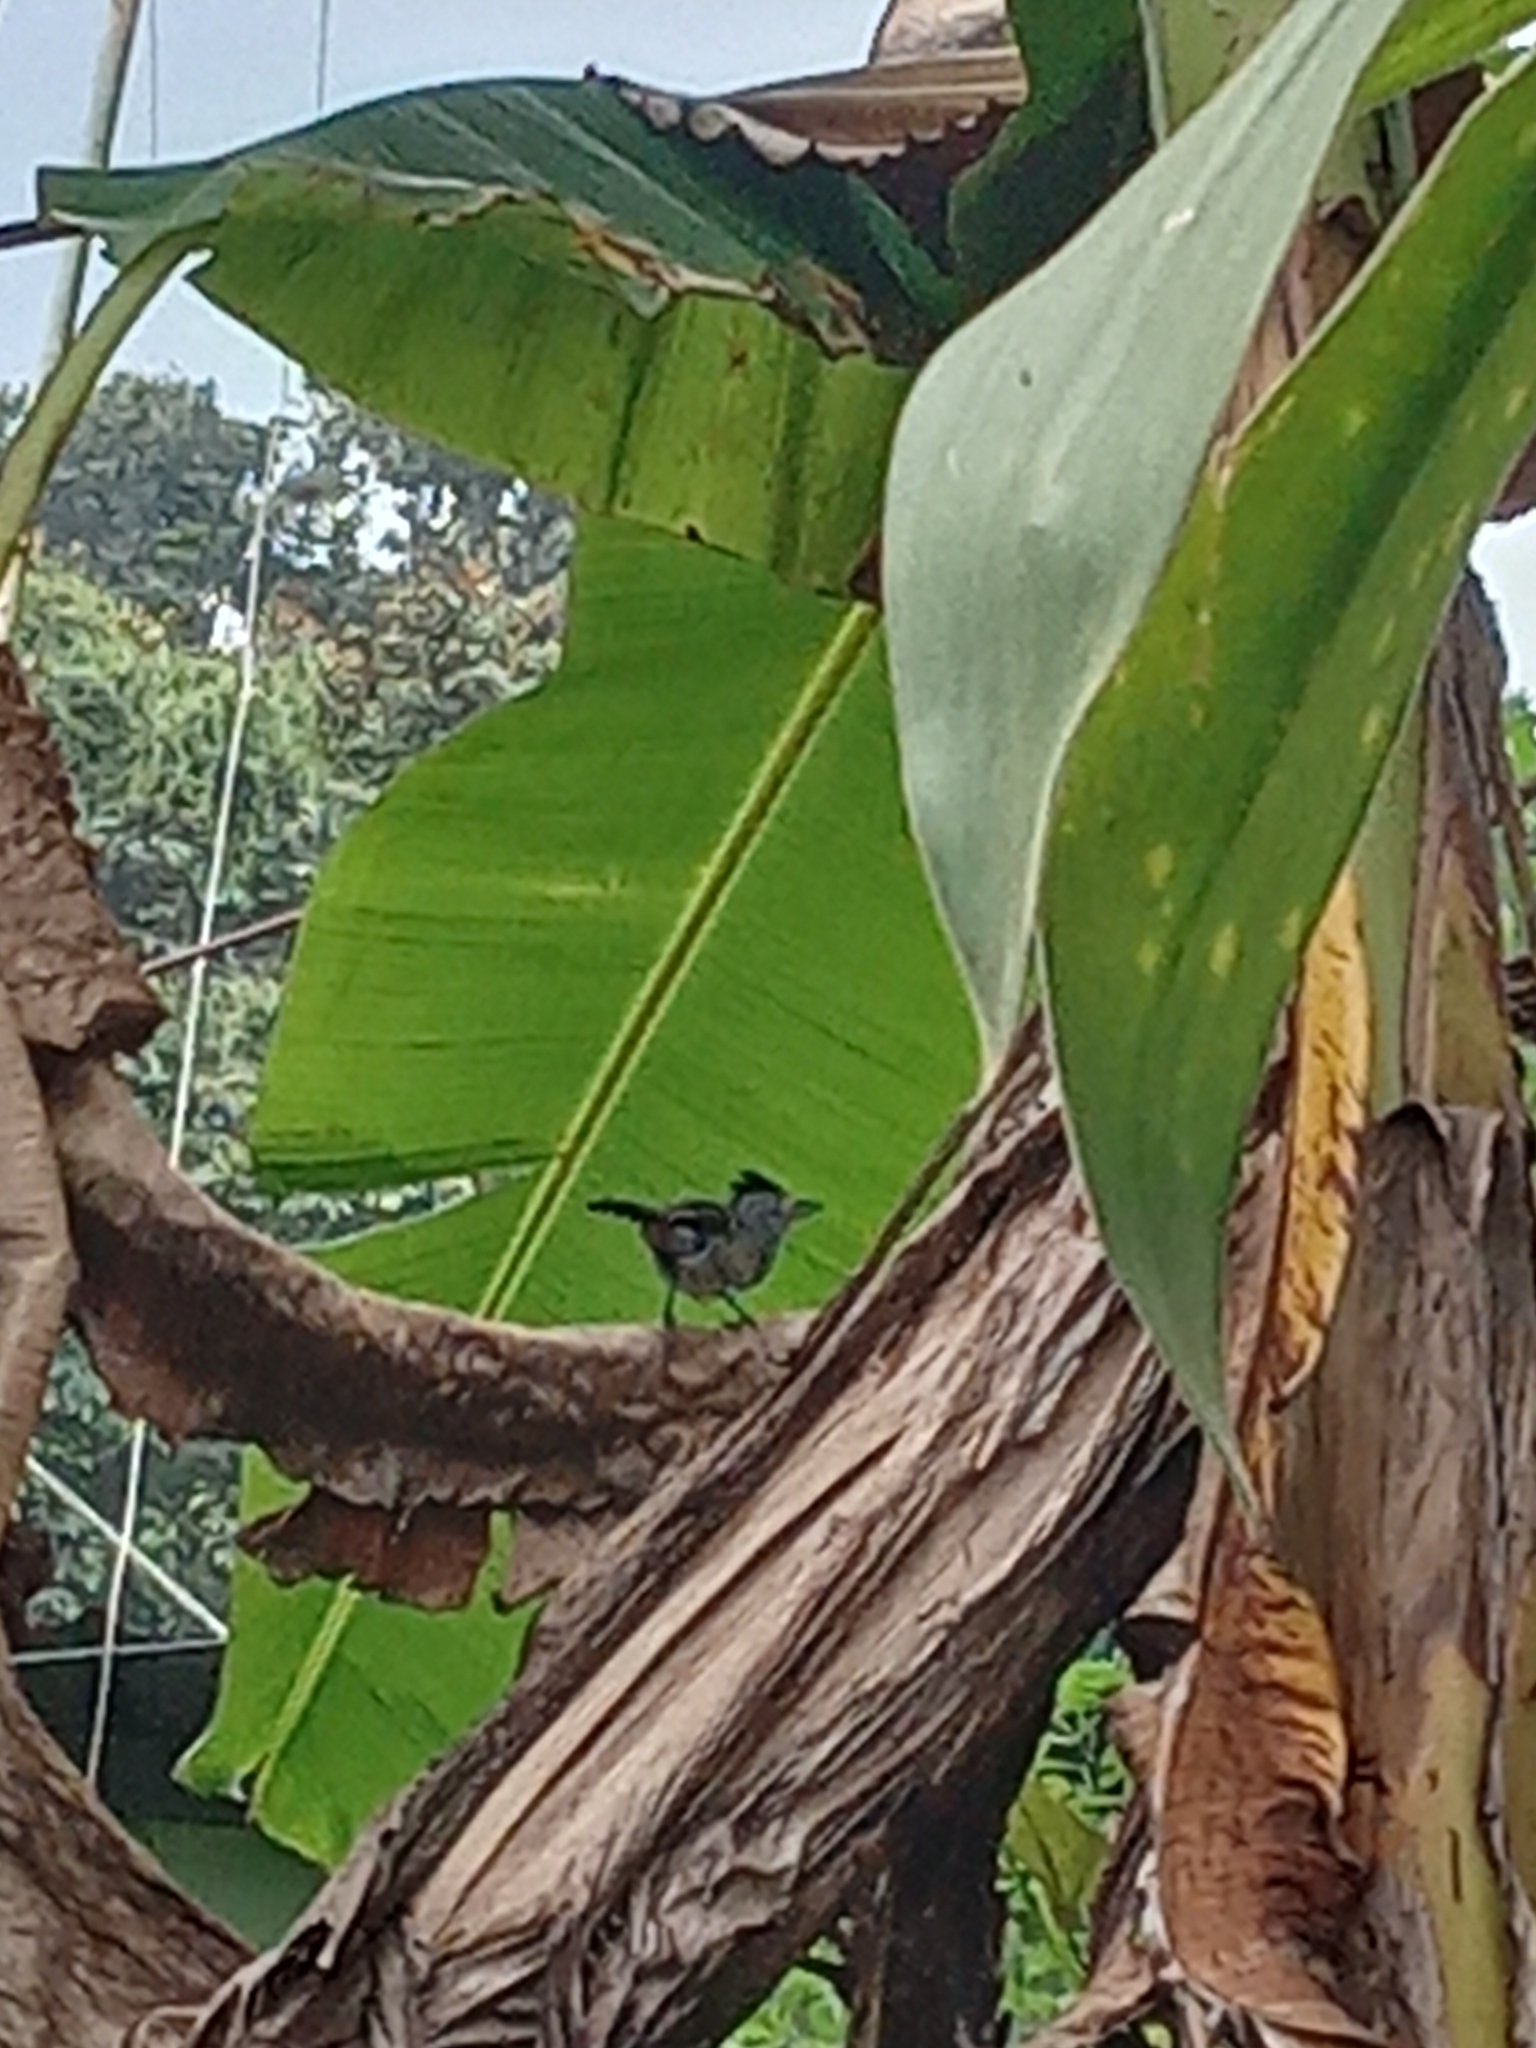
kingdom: Animalia
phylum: Chordata
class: Aves
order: Passeriformes
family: Thamnophilidae
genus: Thamnophilus
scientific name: Thamnophilus doliatus
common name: Barred antshrike
